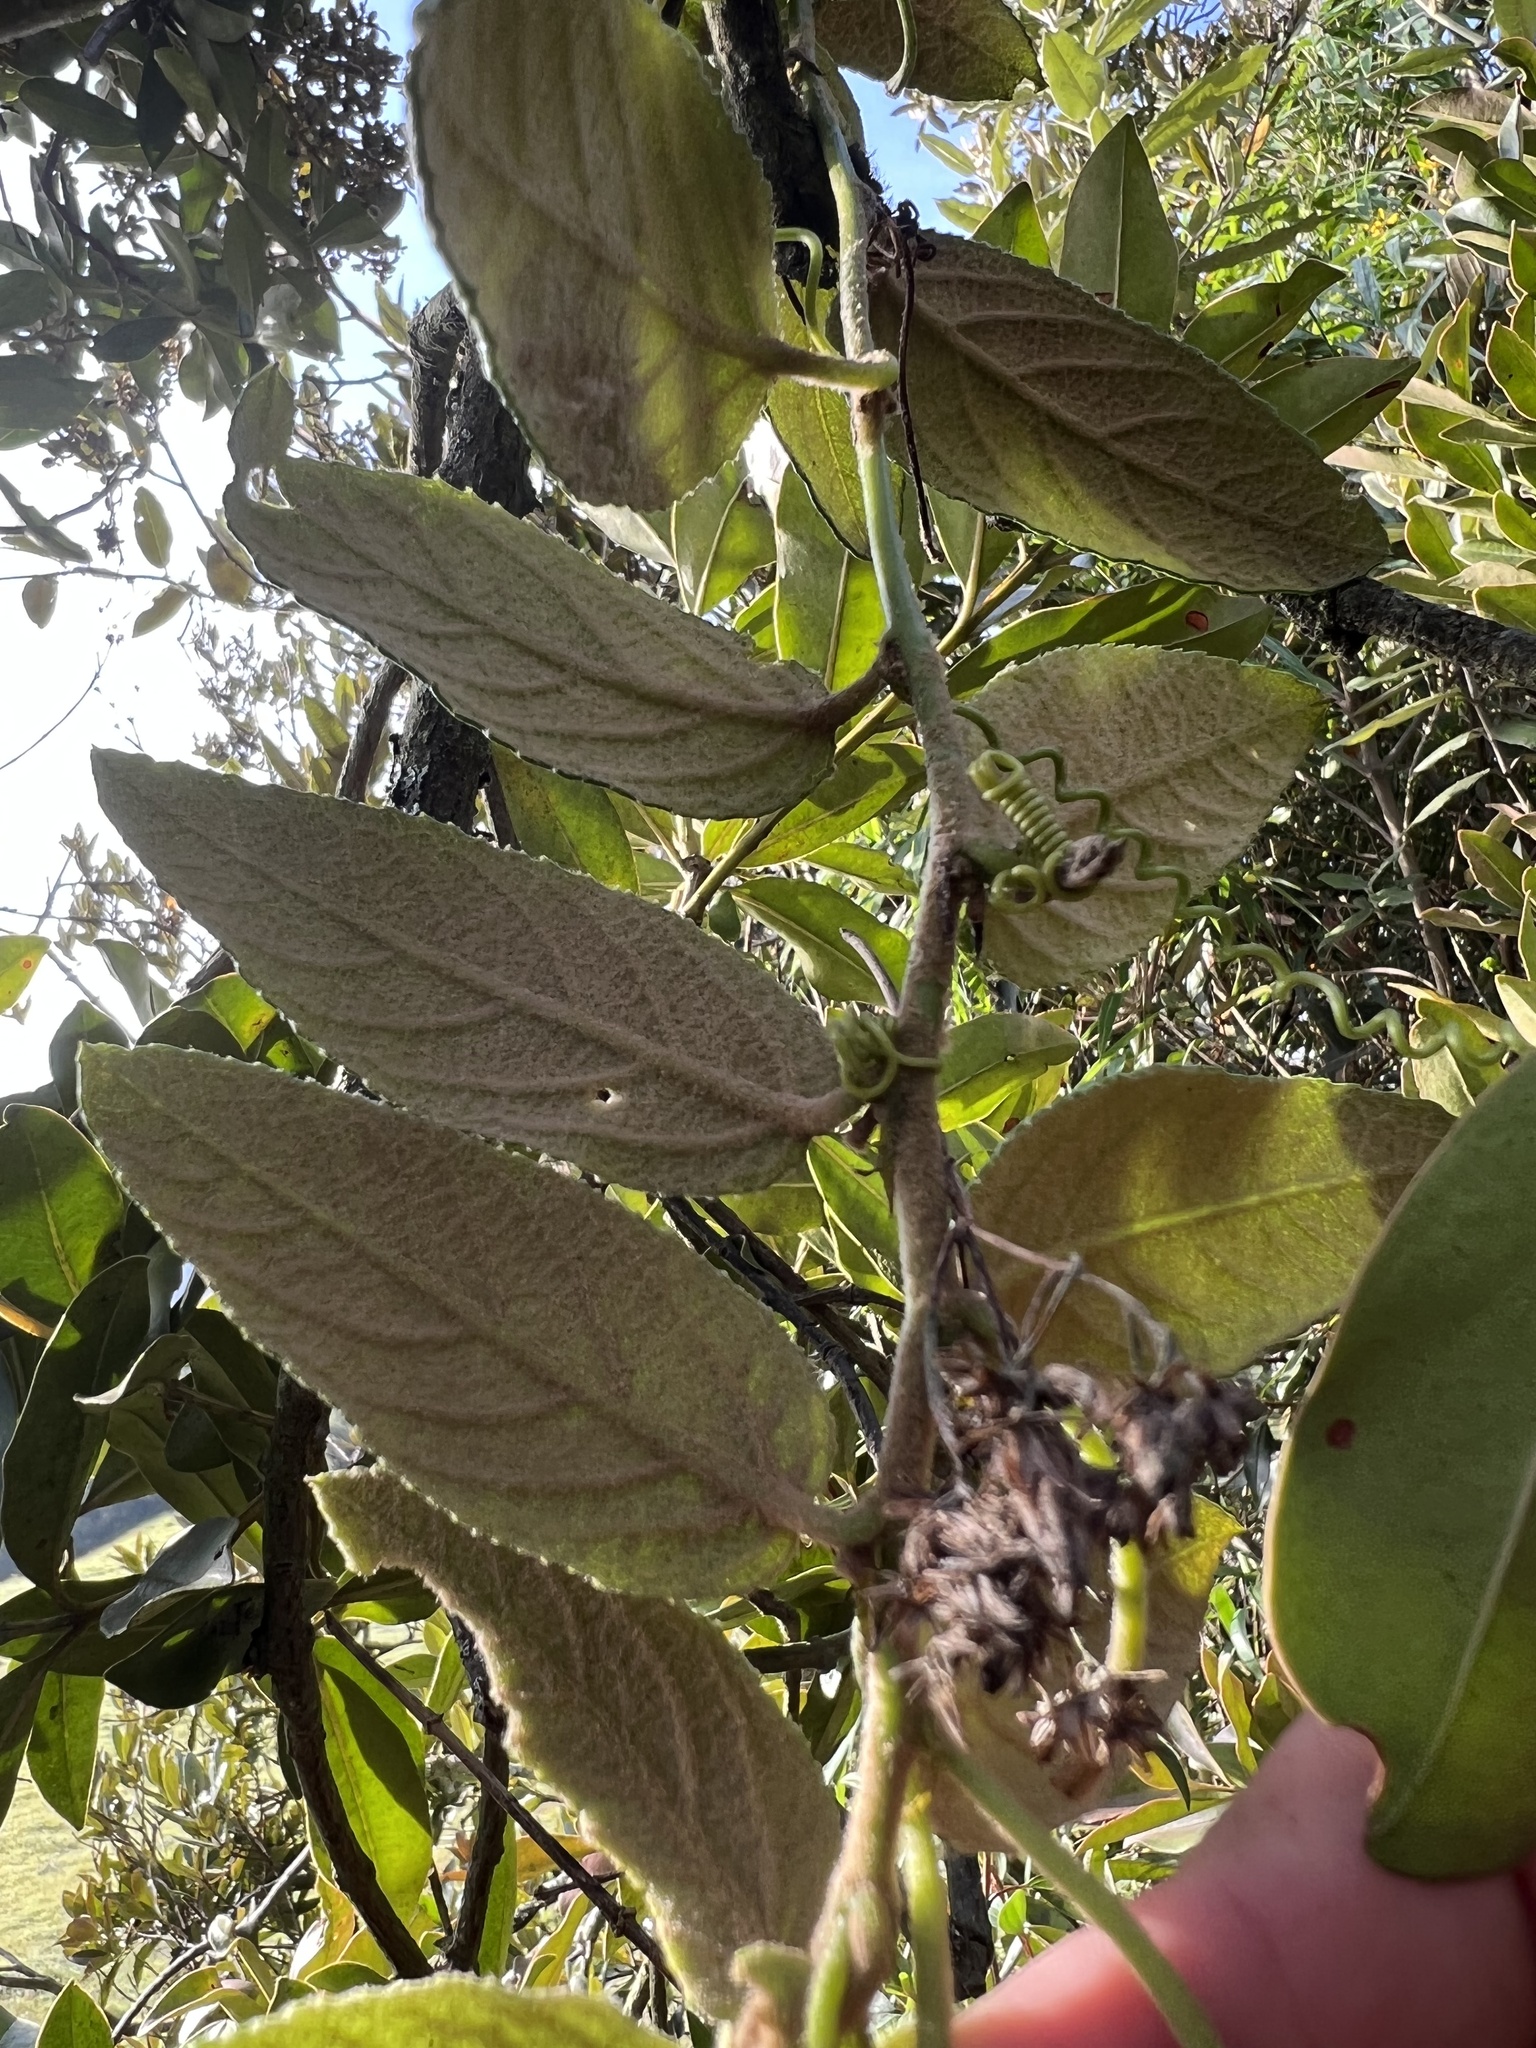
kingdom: Plantae
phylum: Tracheophyta
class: Magnoliopsida
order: Malpighiales
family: Passifloraceae
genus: Passiflora
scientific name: Passiflora adulterina
